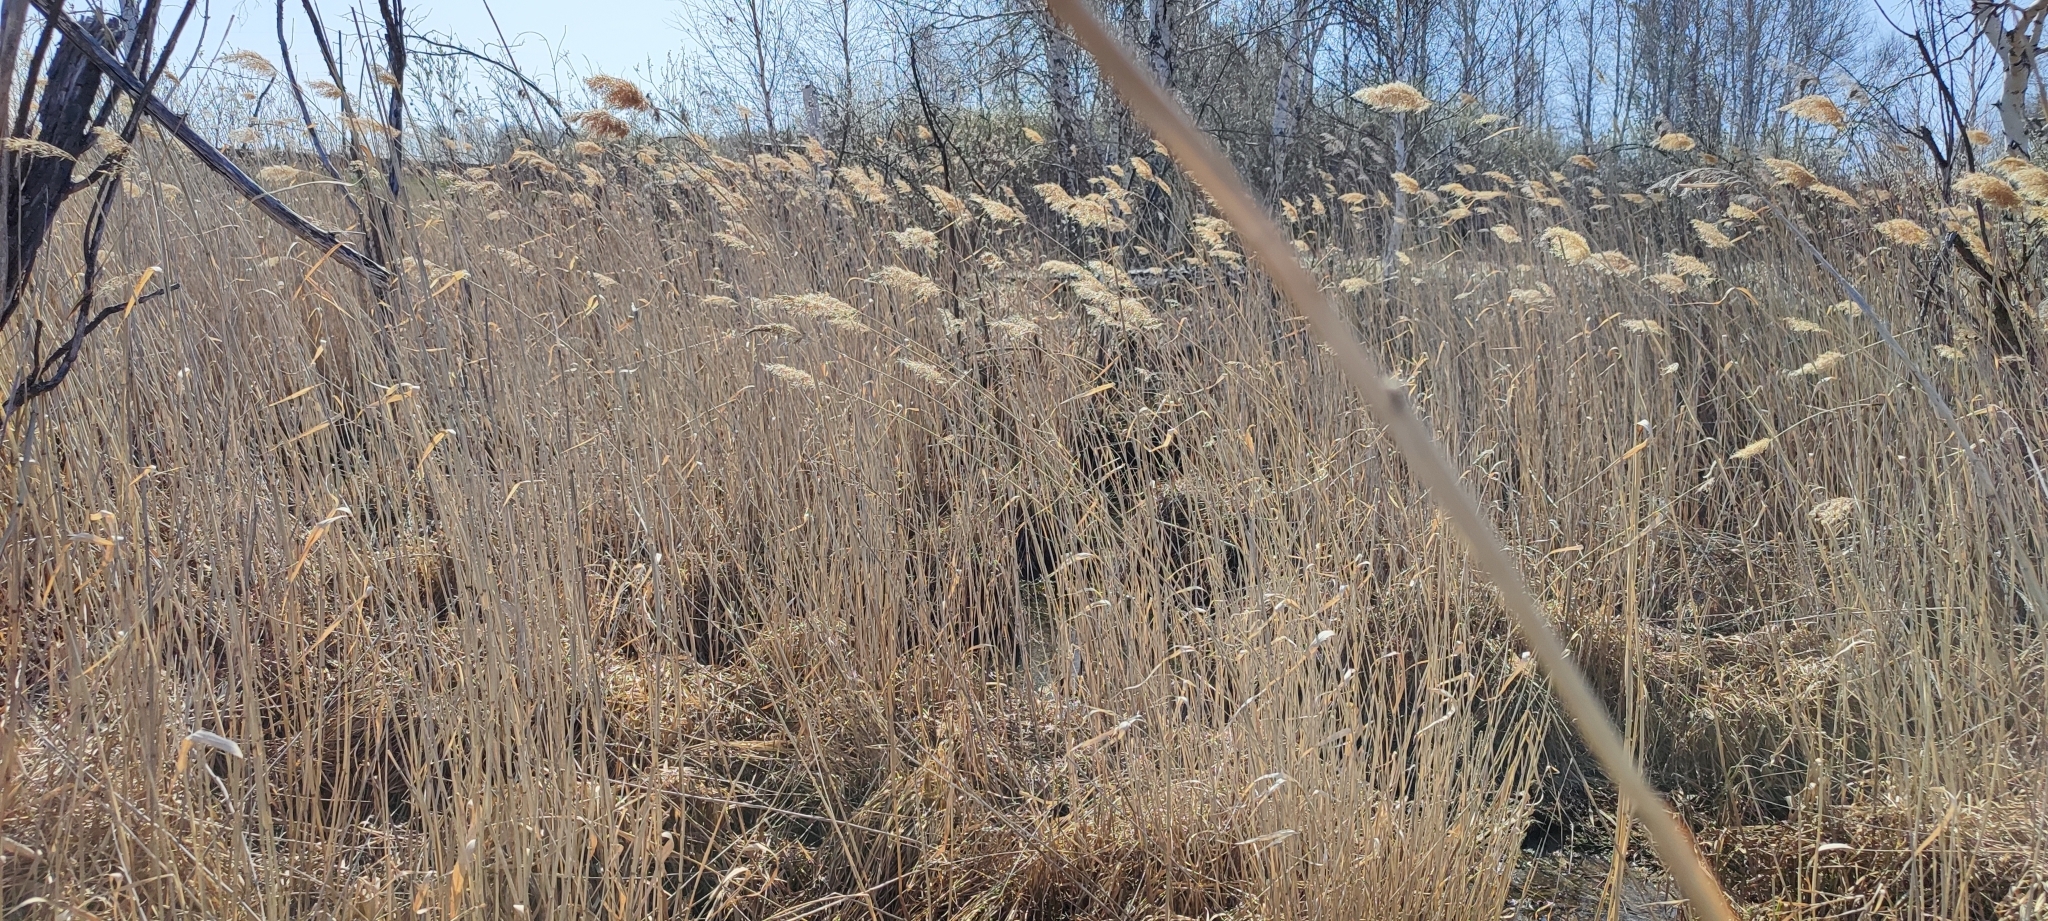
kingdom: Plantae
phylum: Tracheophyta
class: Liliopsida
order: Poales
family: Poaceae
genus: Phragmites
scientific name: Phragmites australis
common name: Common reed
